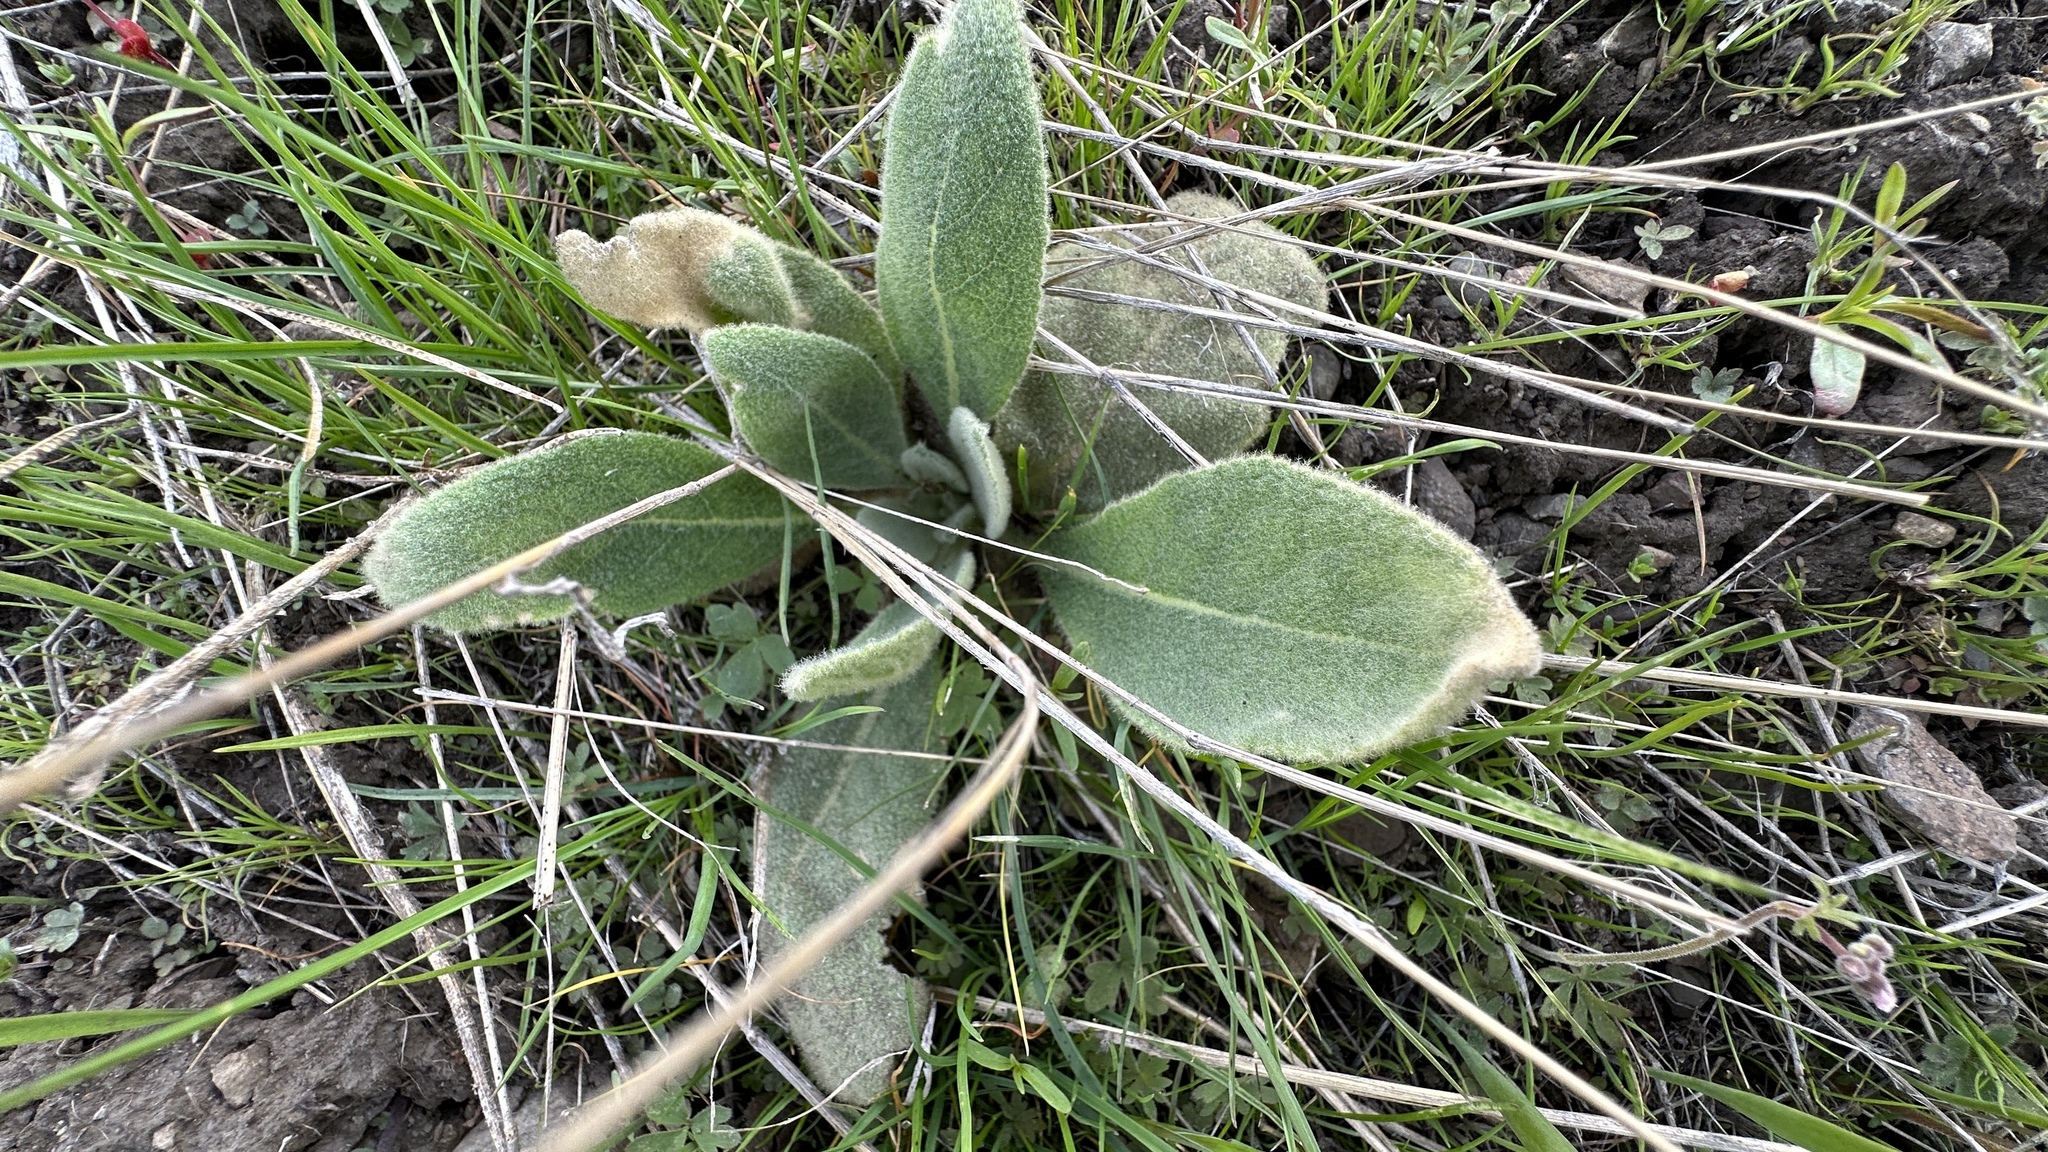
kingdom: Plantae
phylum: Tracheophyta
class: Magnoliopsida
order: Lamiales
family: Scrophulariaceae
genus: Verbascum
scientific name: Verbascum thapsus
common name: Common mullein
